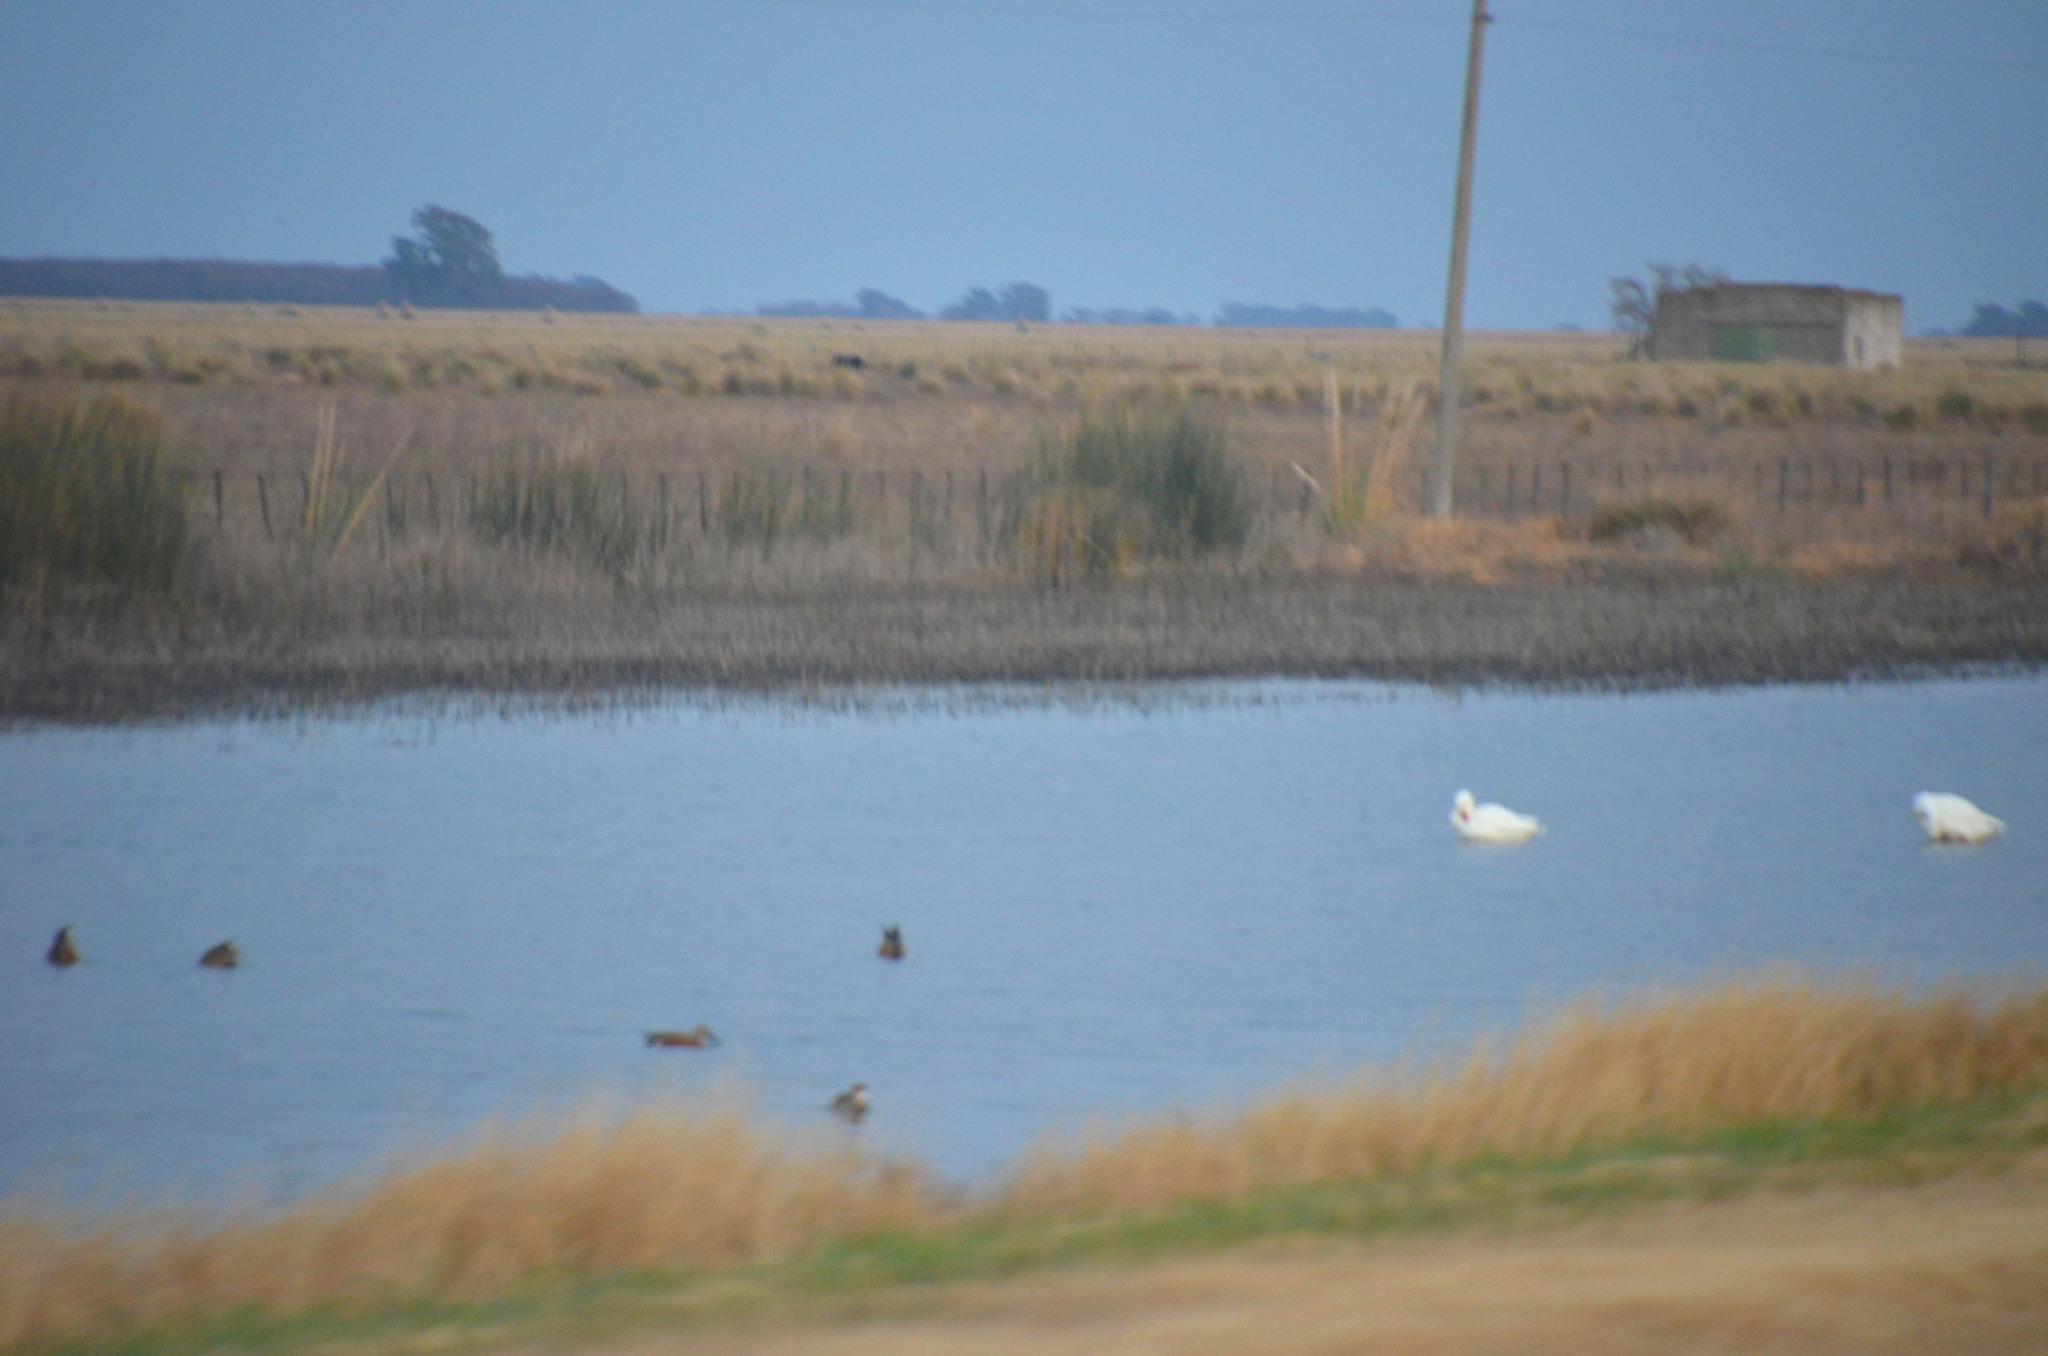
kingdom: Animalia
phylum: Chordata
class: Aves
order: Anseriformes
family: Anatidae
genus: Coscoroba
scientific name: Coscoroba coscoroba
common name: Coscoroba swan
